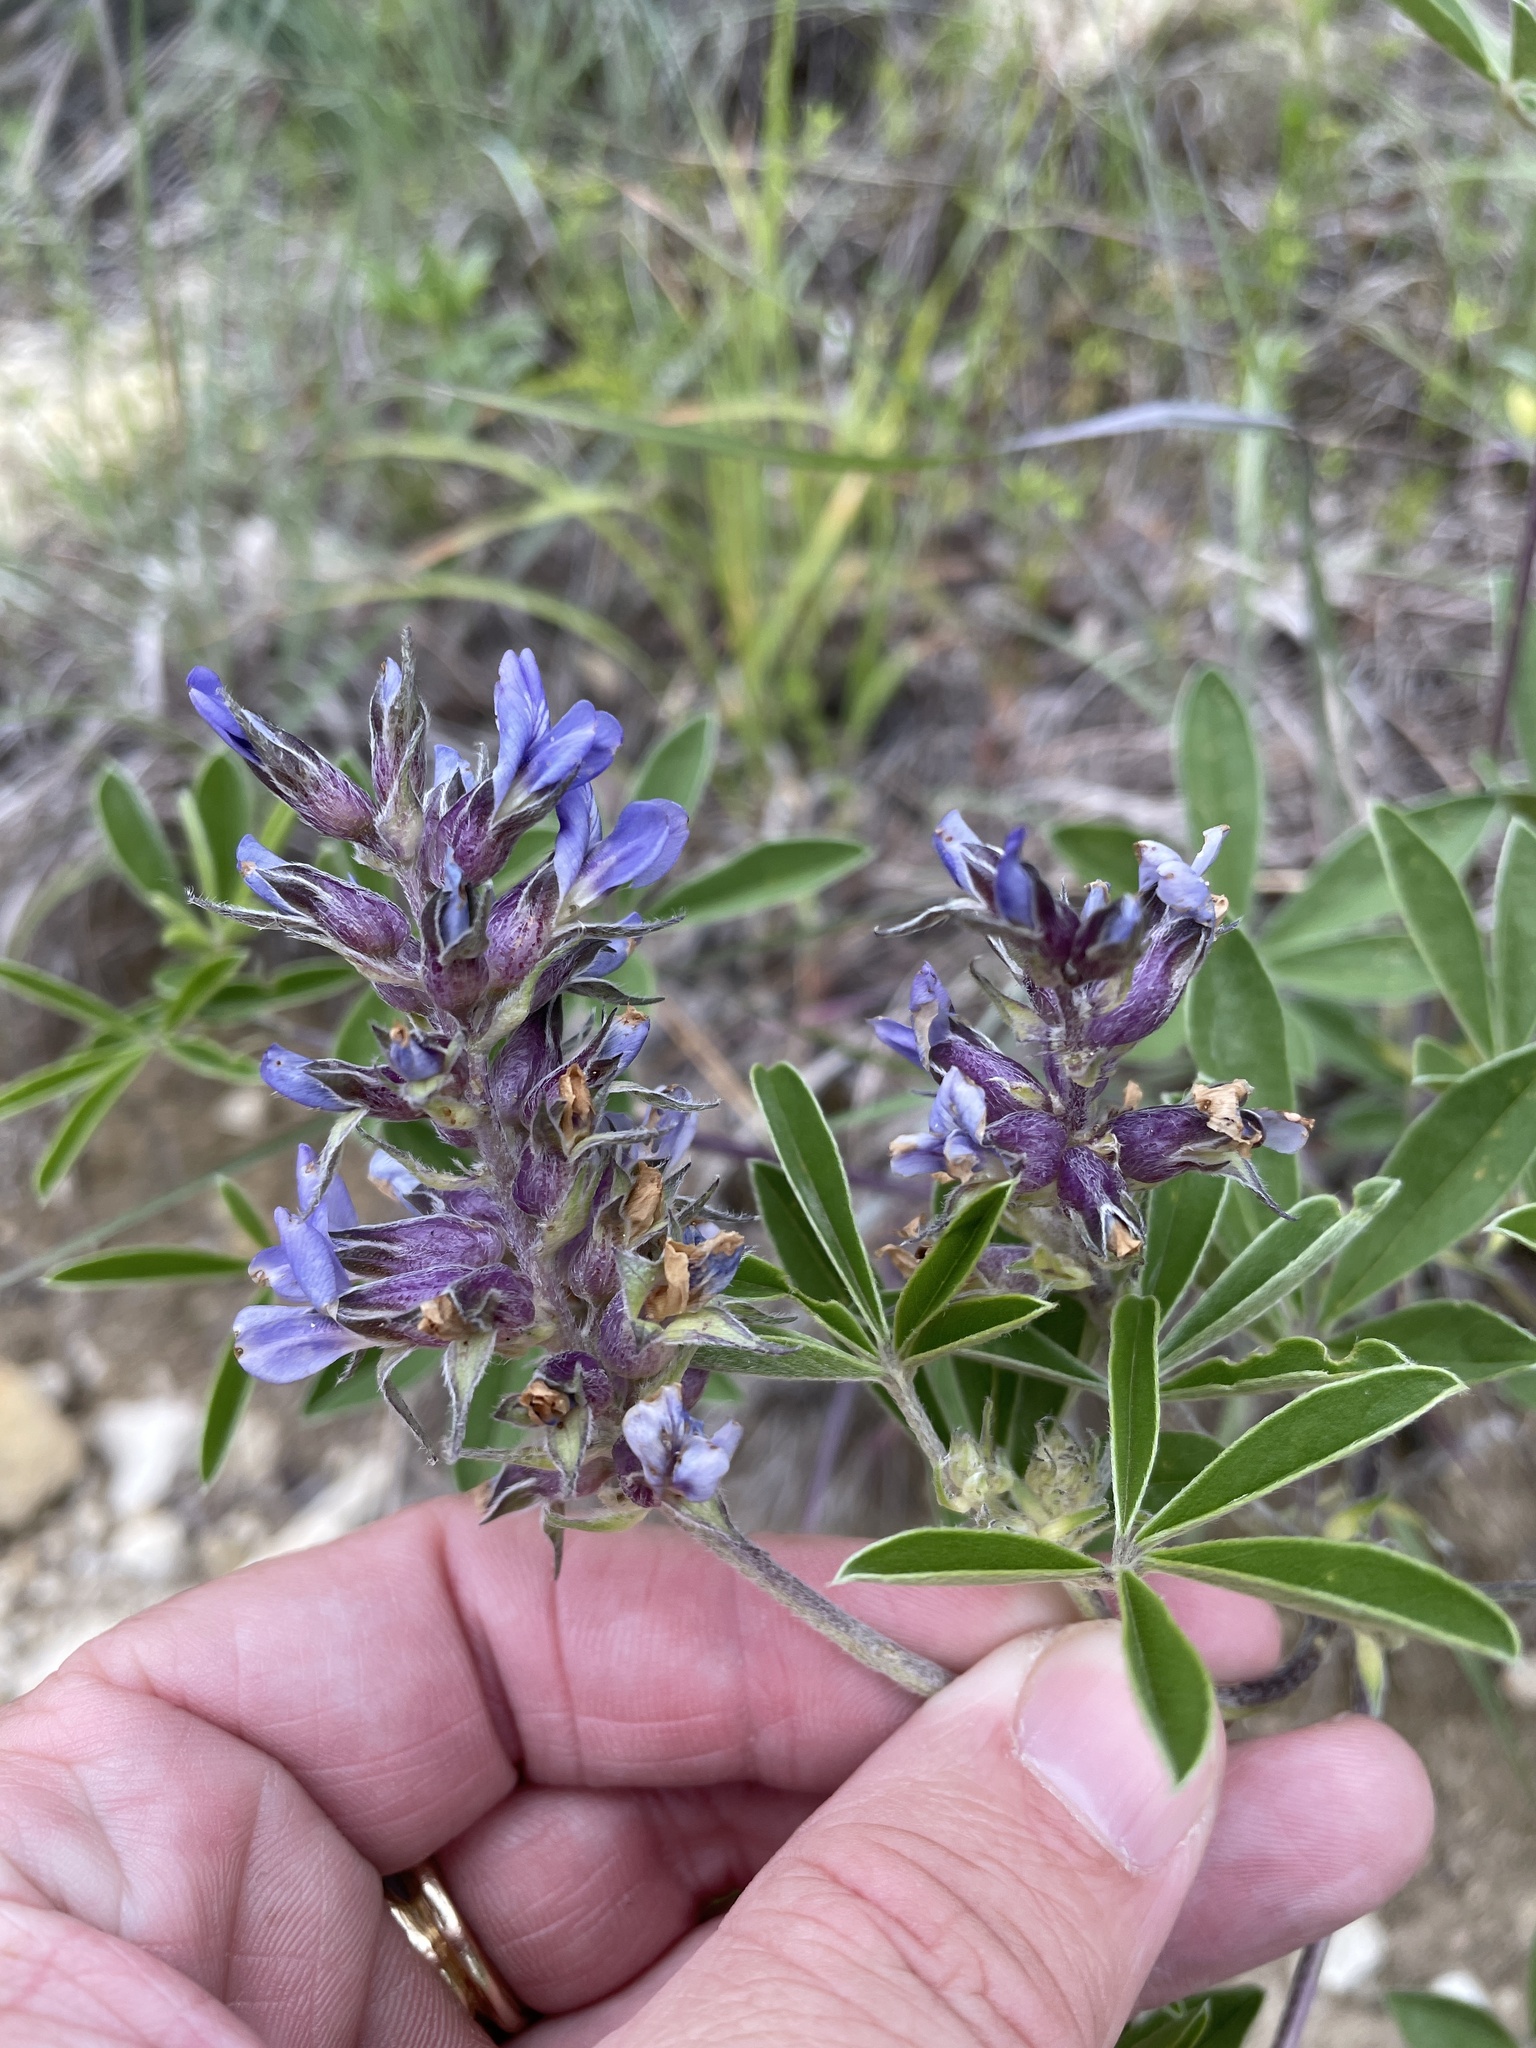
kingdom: Plantae
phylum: Tracheophyta
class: Magnoliopsida
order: Fabales
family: Fabaceae
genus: Pediomelum
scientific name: Pediomelum cuspidatum
